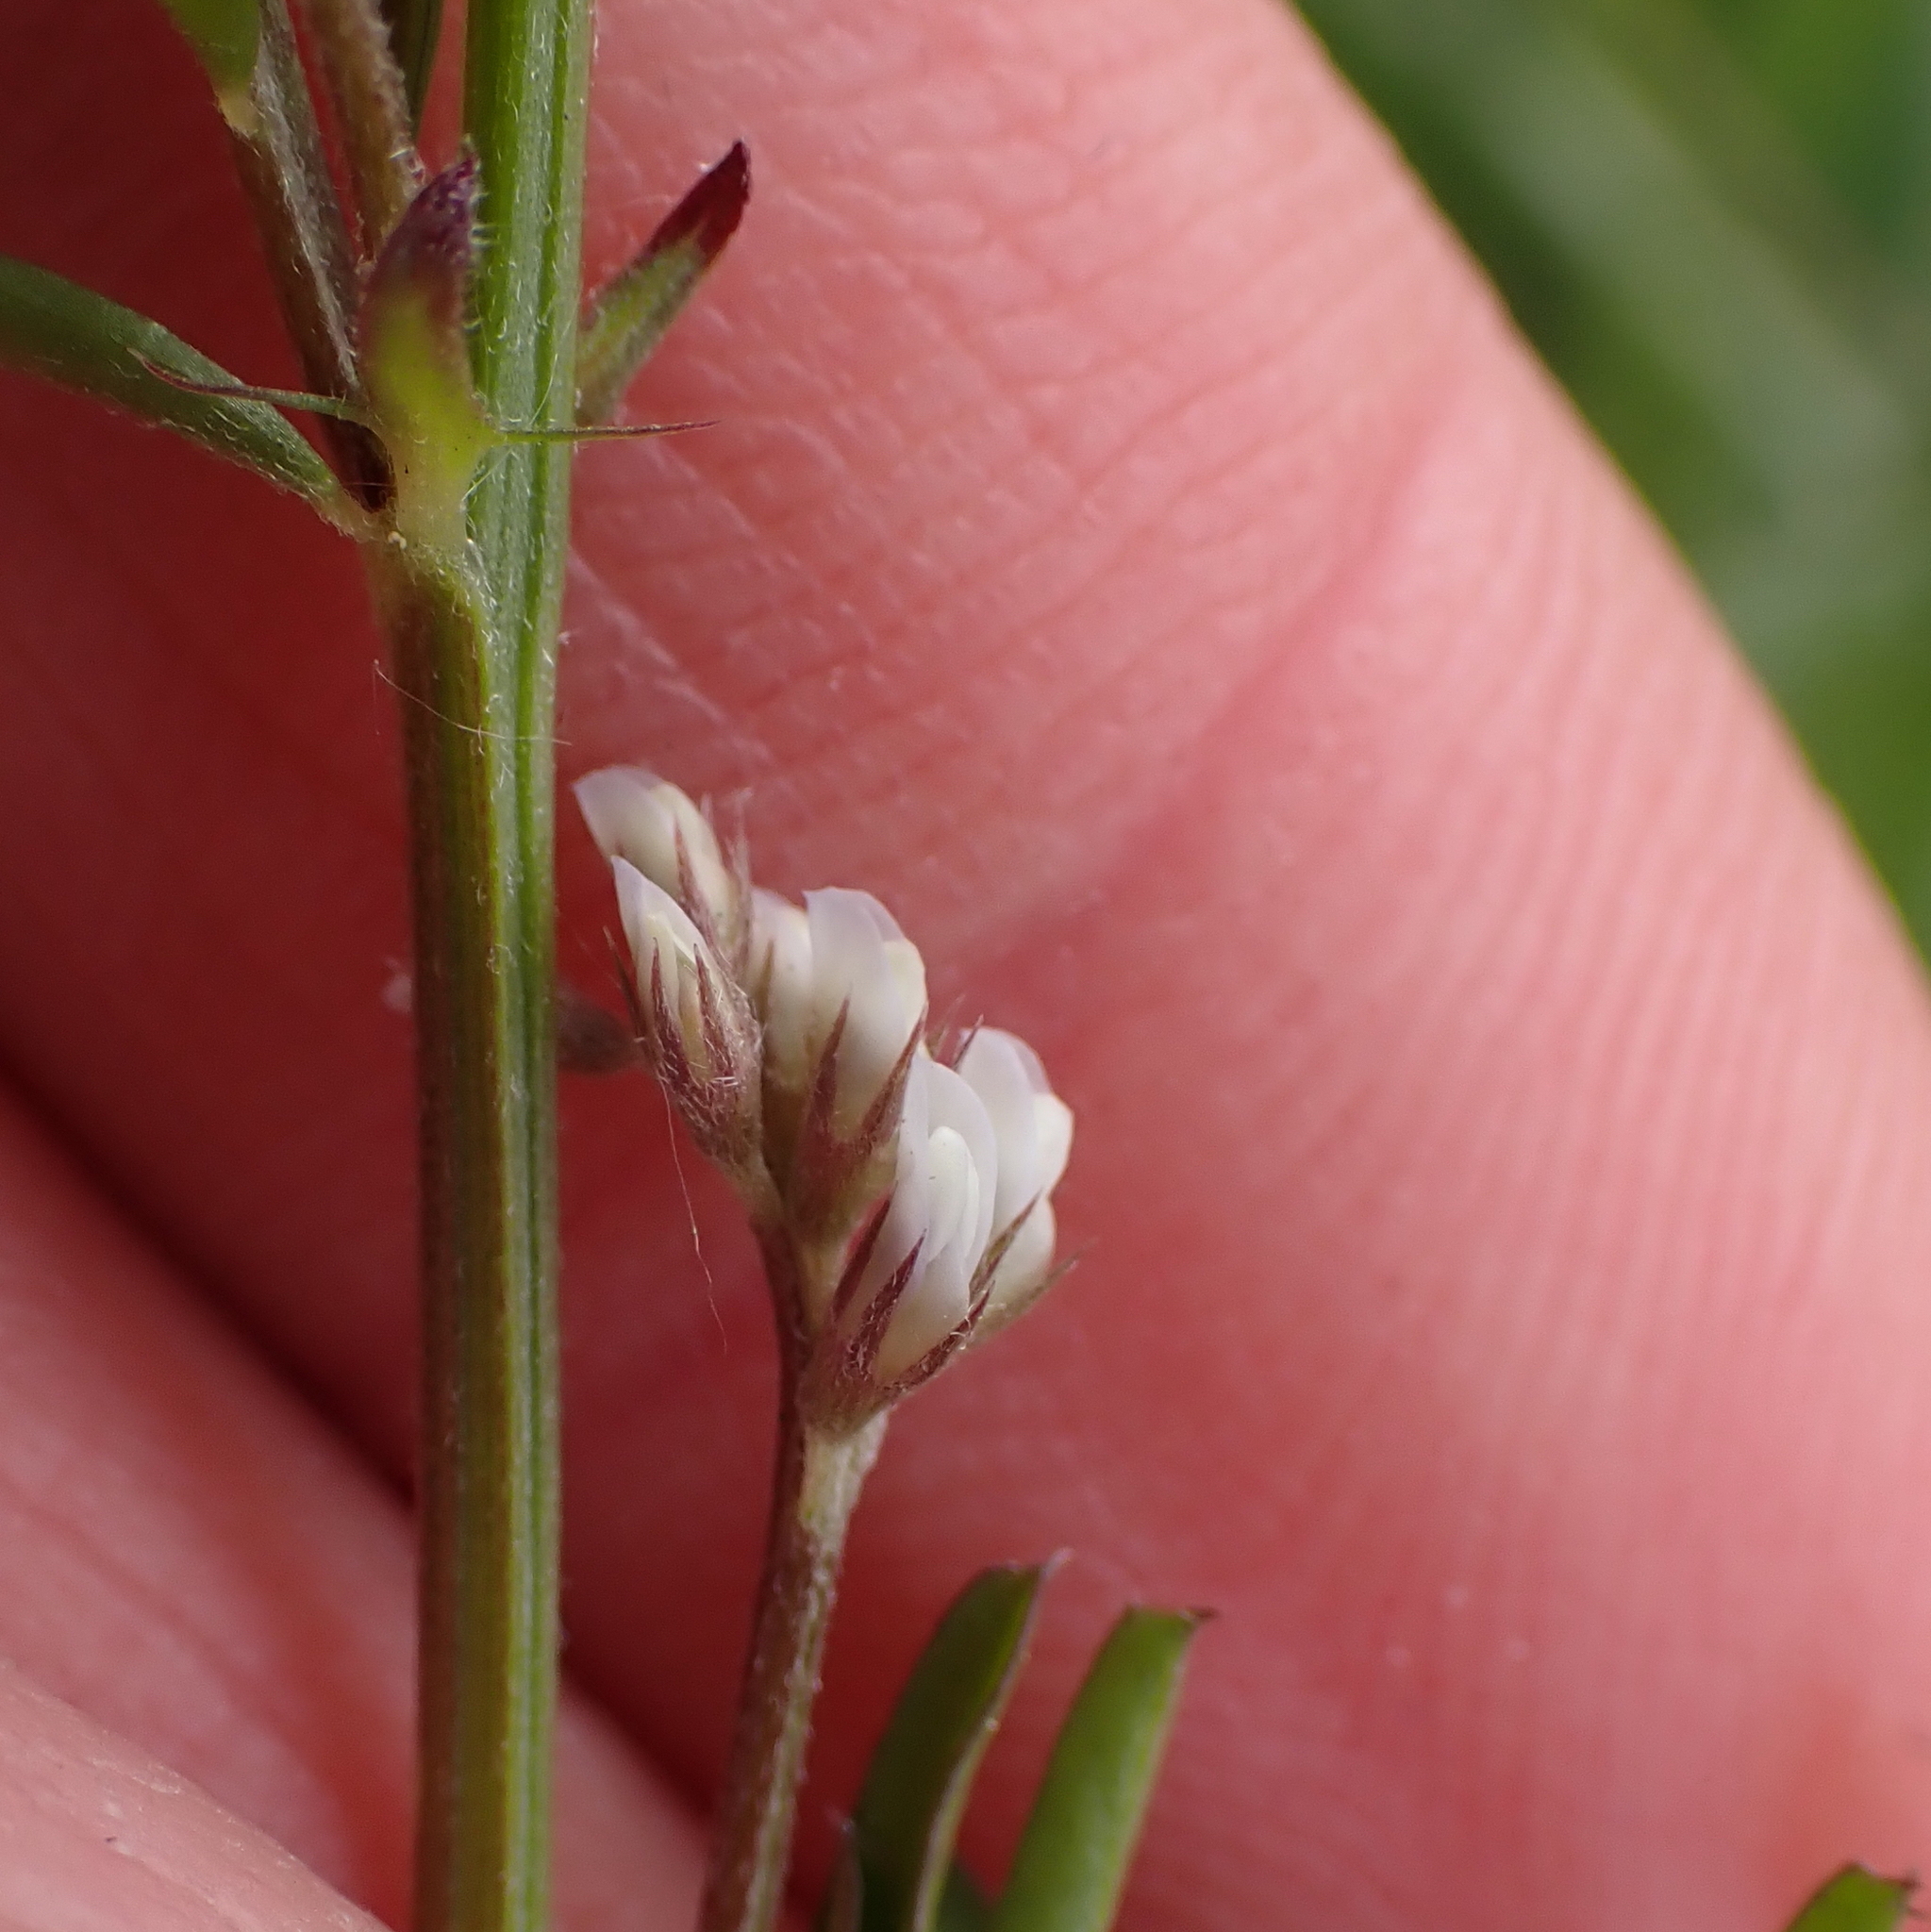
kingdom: Plantae
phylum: Tracheophyta
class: Magnoliopsida
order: Fabales
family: Fabaceae
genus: Vicia
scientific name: Vicia hirsuta
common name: Tiny vetch
